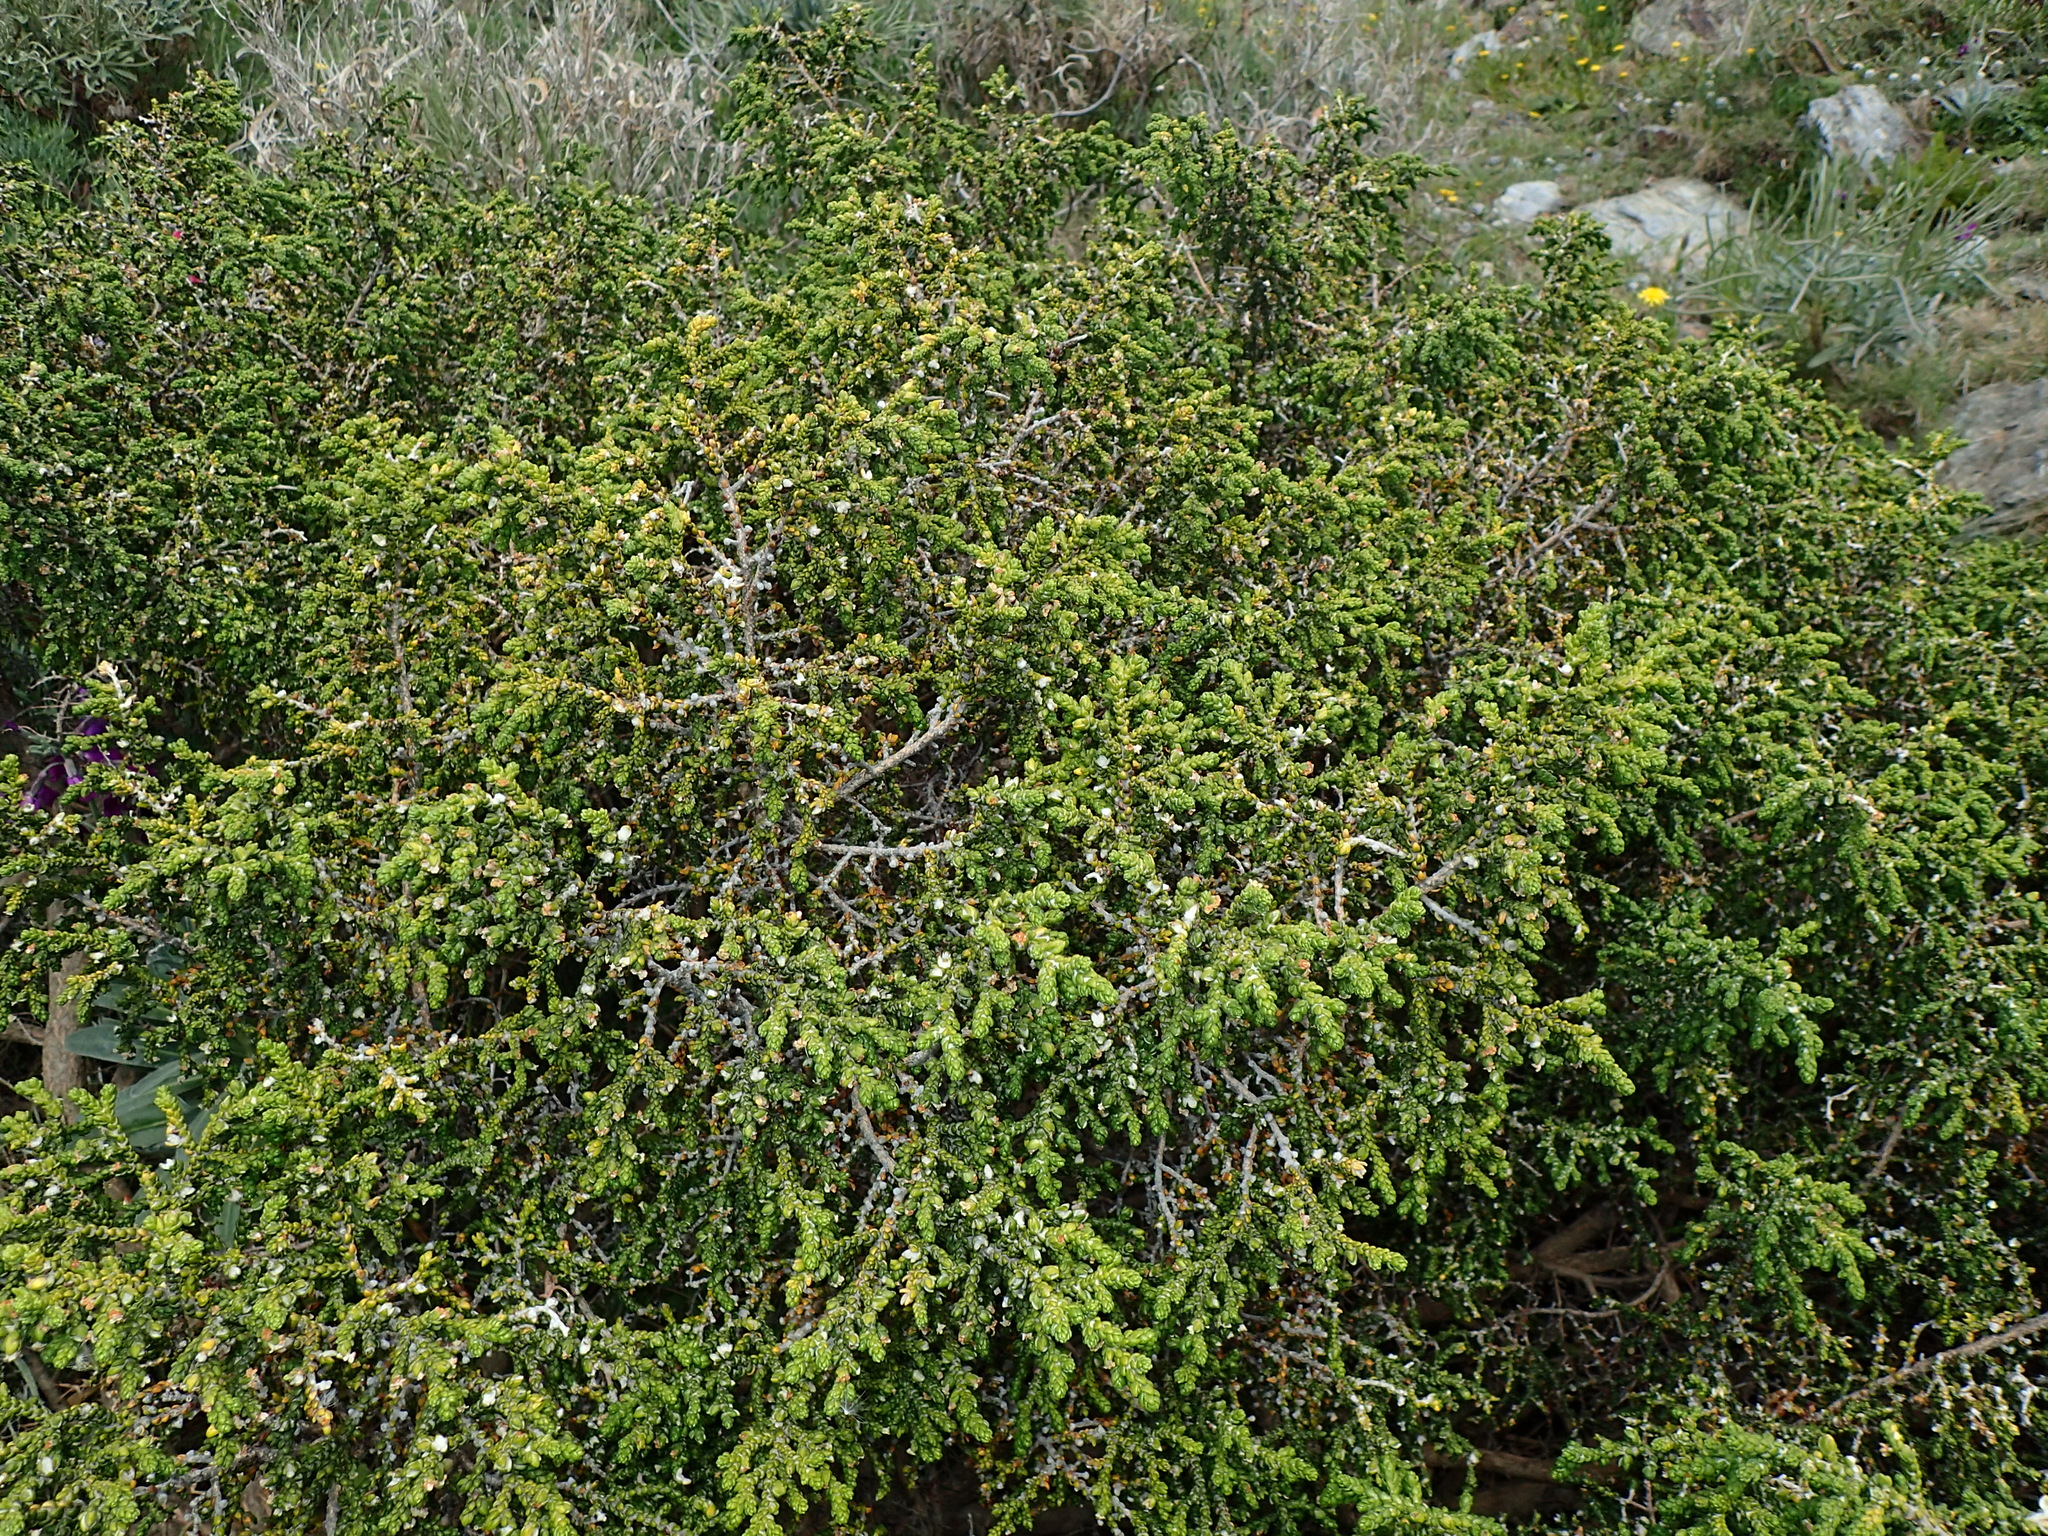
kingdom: Plantae
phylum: Tracheophyta
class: Magnoliopsida
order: Malvales
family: Thymelaeaceae
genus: Thymelaea
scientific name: Thymelaea hirsuta
